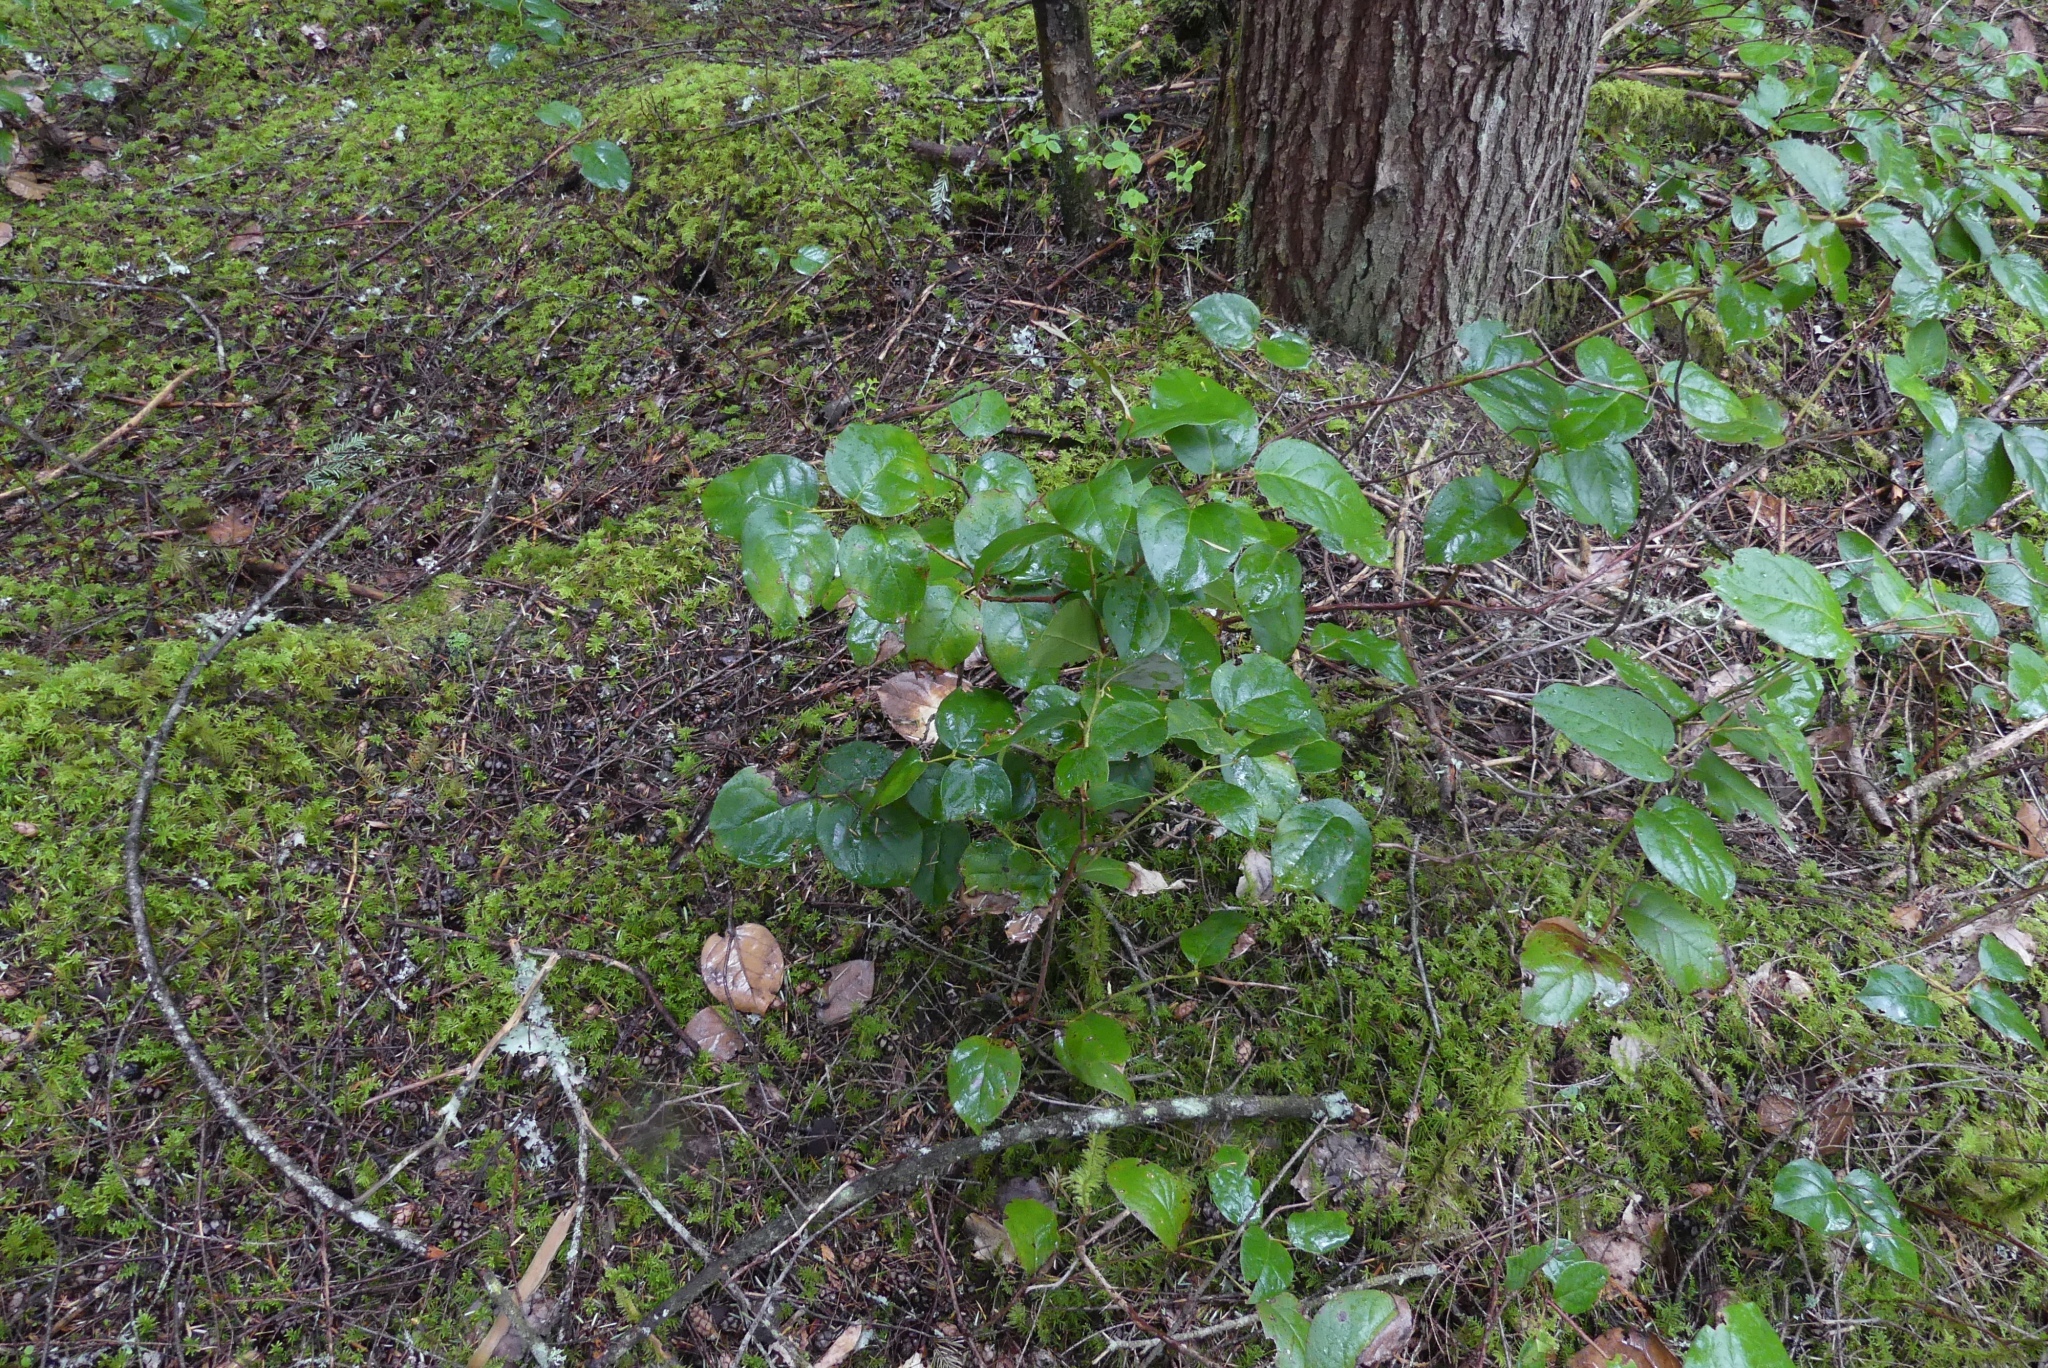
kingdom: Plantae
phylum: Tracheophyta
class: Magnoliopsida
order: Ericales
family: Ericaceae
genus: Gaultheria
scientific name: Gaultheria shallon
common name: Shallon
